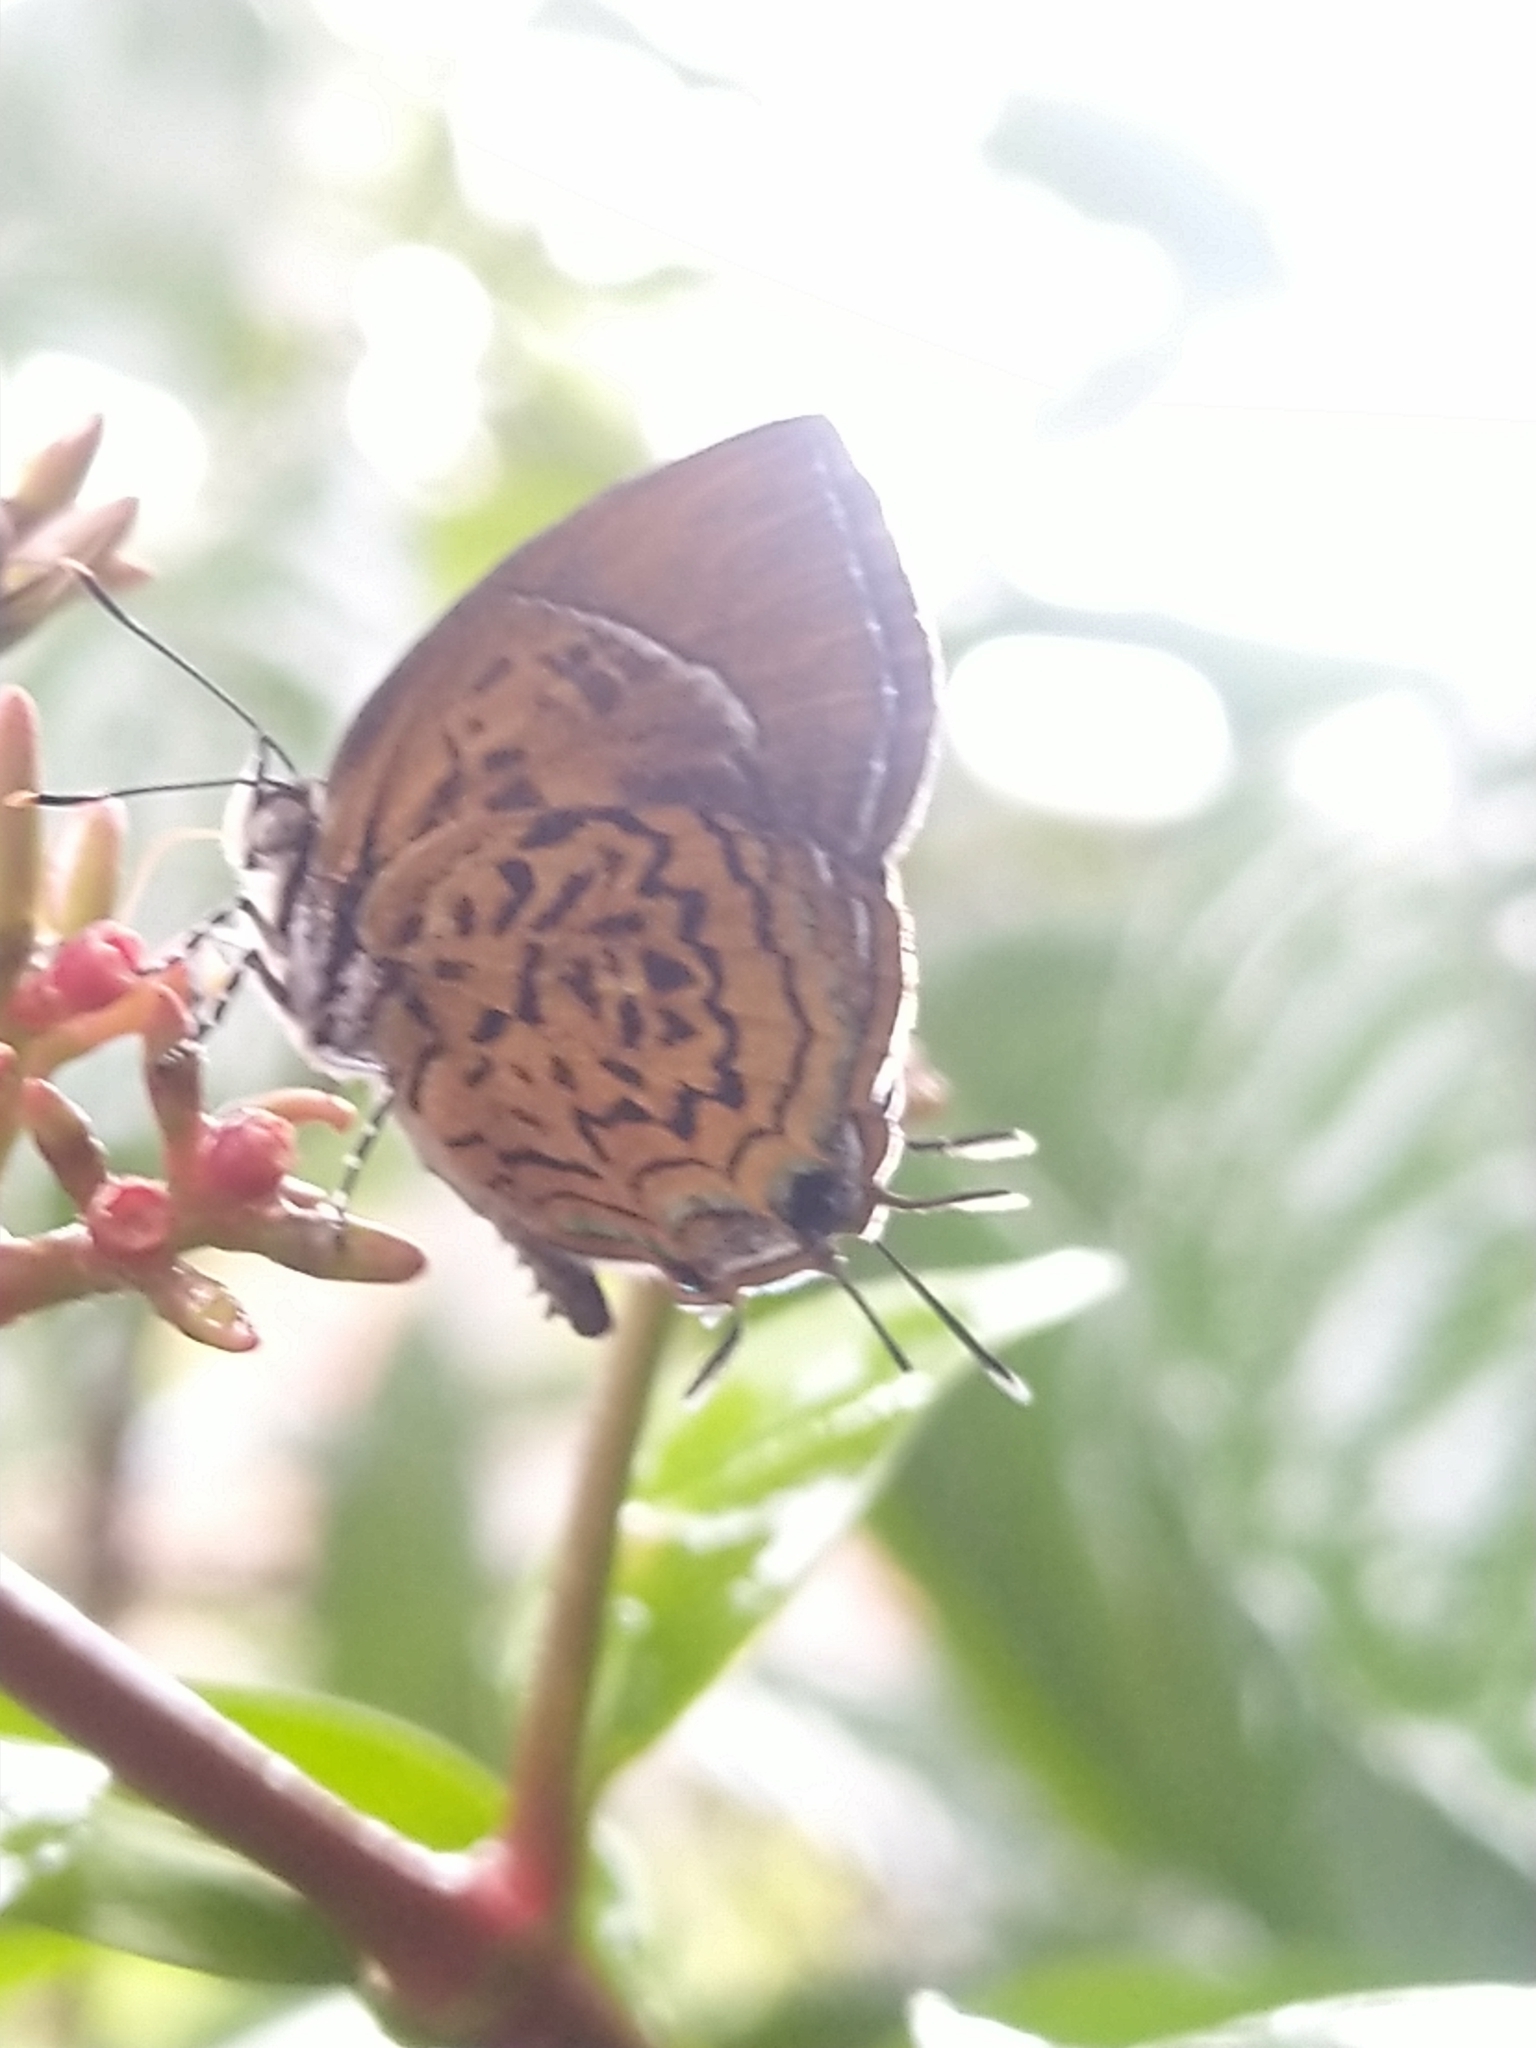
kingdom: Animalia
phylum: Arthropoda
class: Insecta
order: Lepidoptera
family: Lycaenidae
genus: Rathinda
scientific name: Rathinda amor
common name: Monkey puzzle
